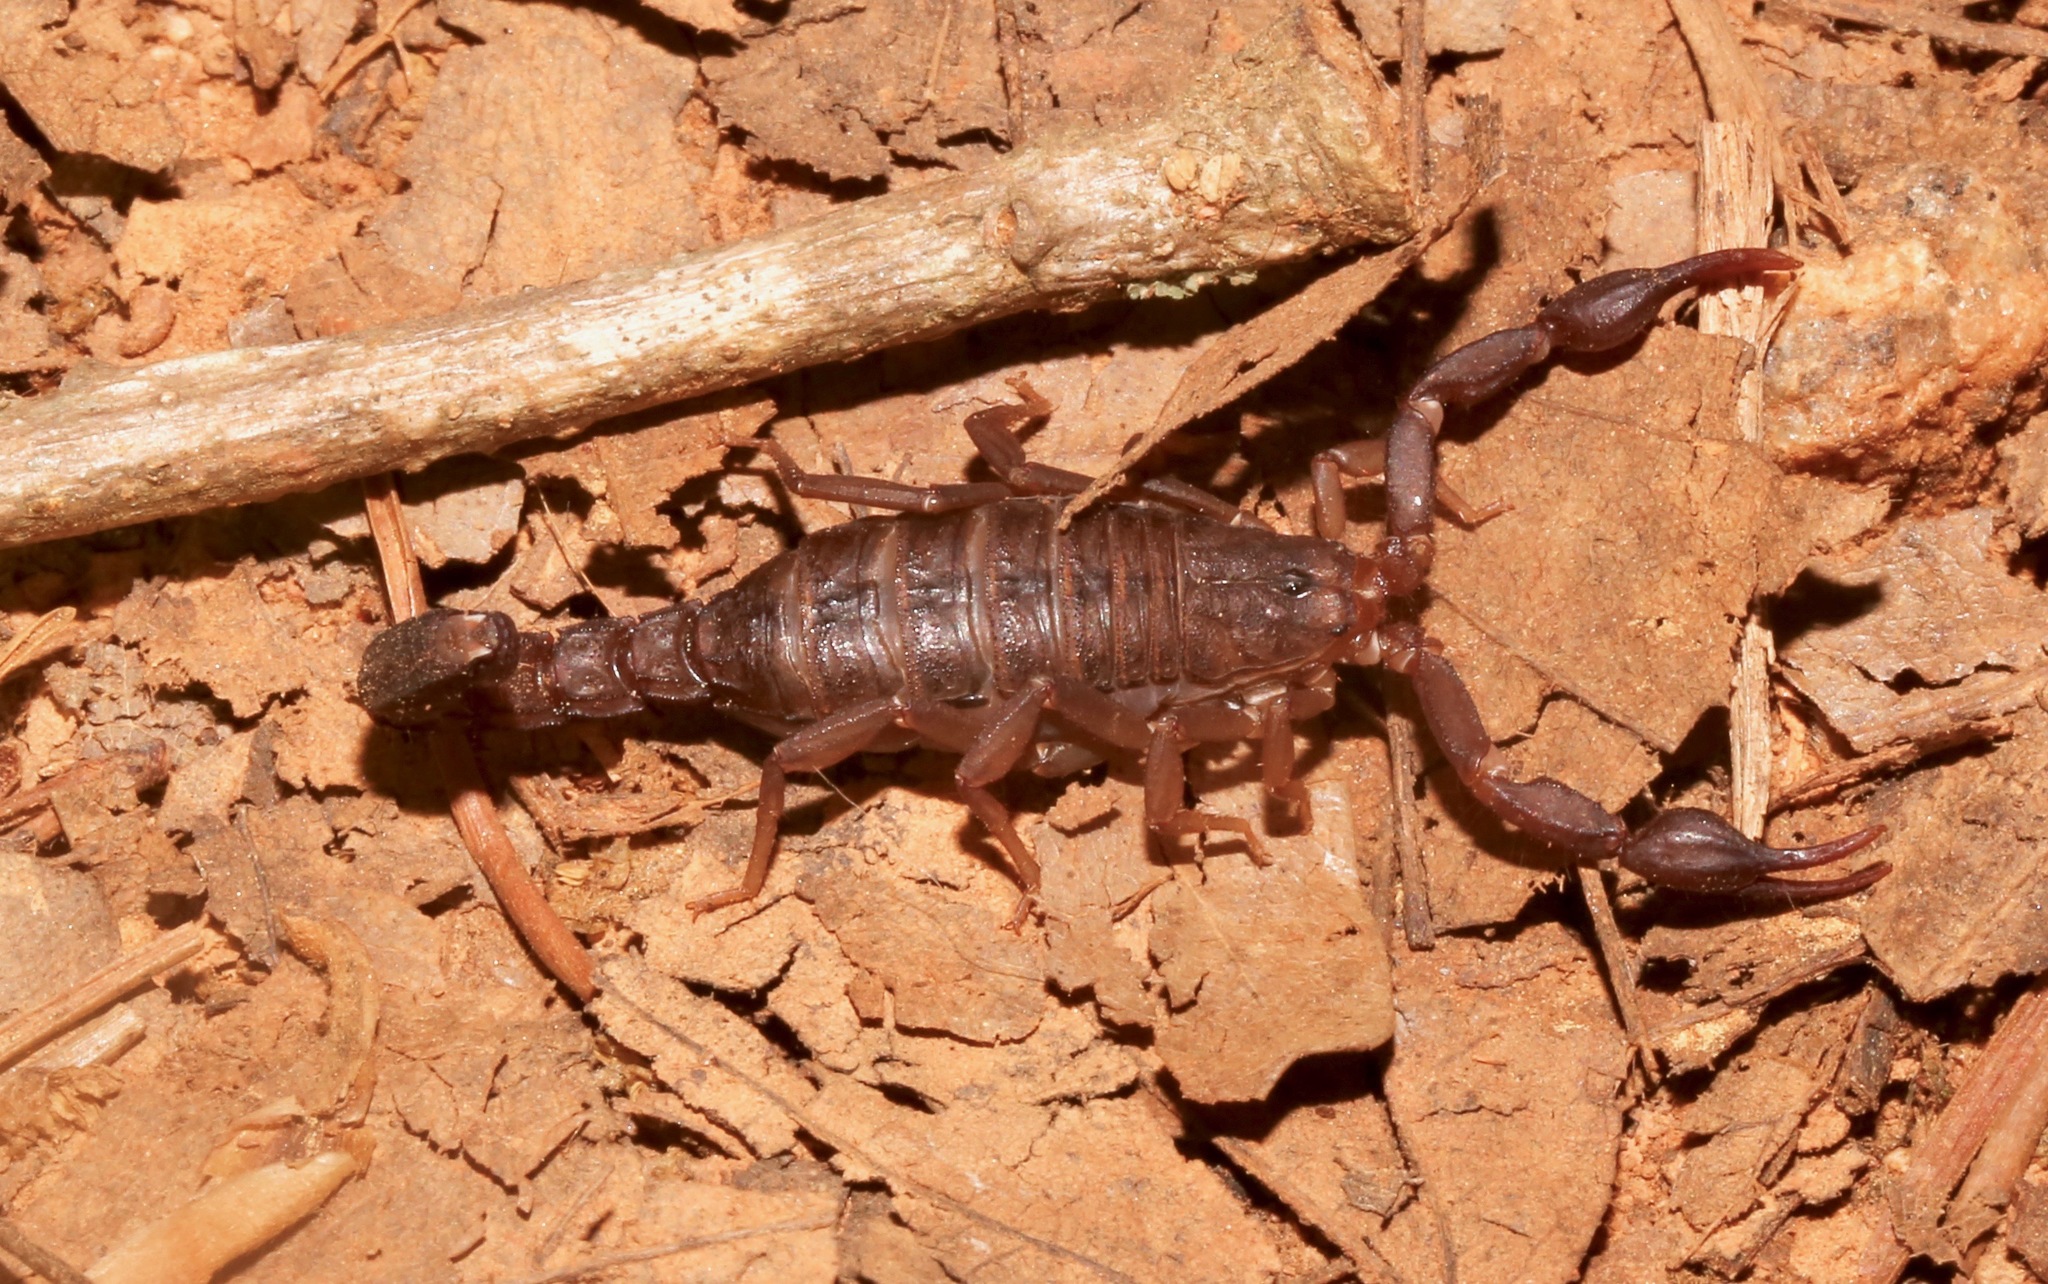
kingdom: Animalia
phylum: Arthropoda
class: Arachnida
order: Scorpiones
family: Vaejovidae
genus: Vaejovis
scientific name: Vaejovis carolinianus
